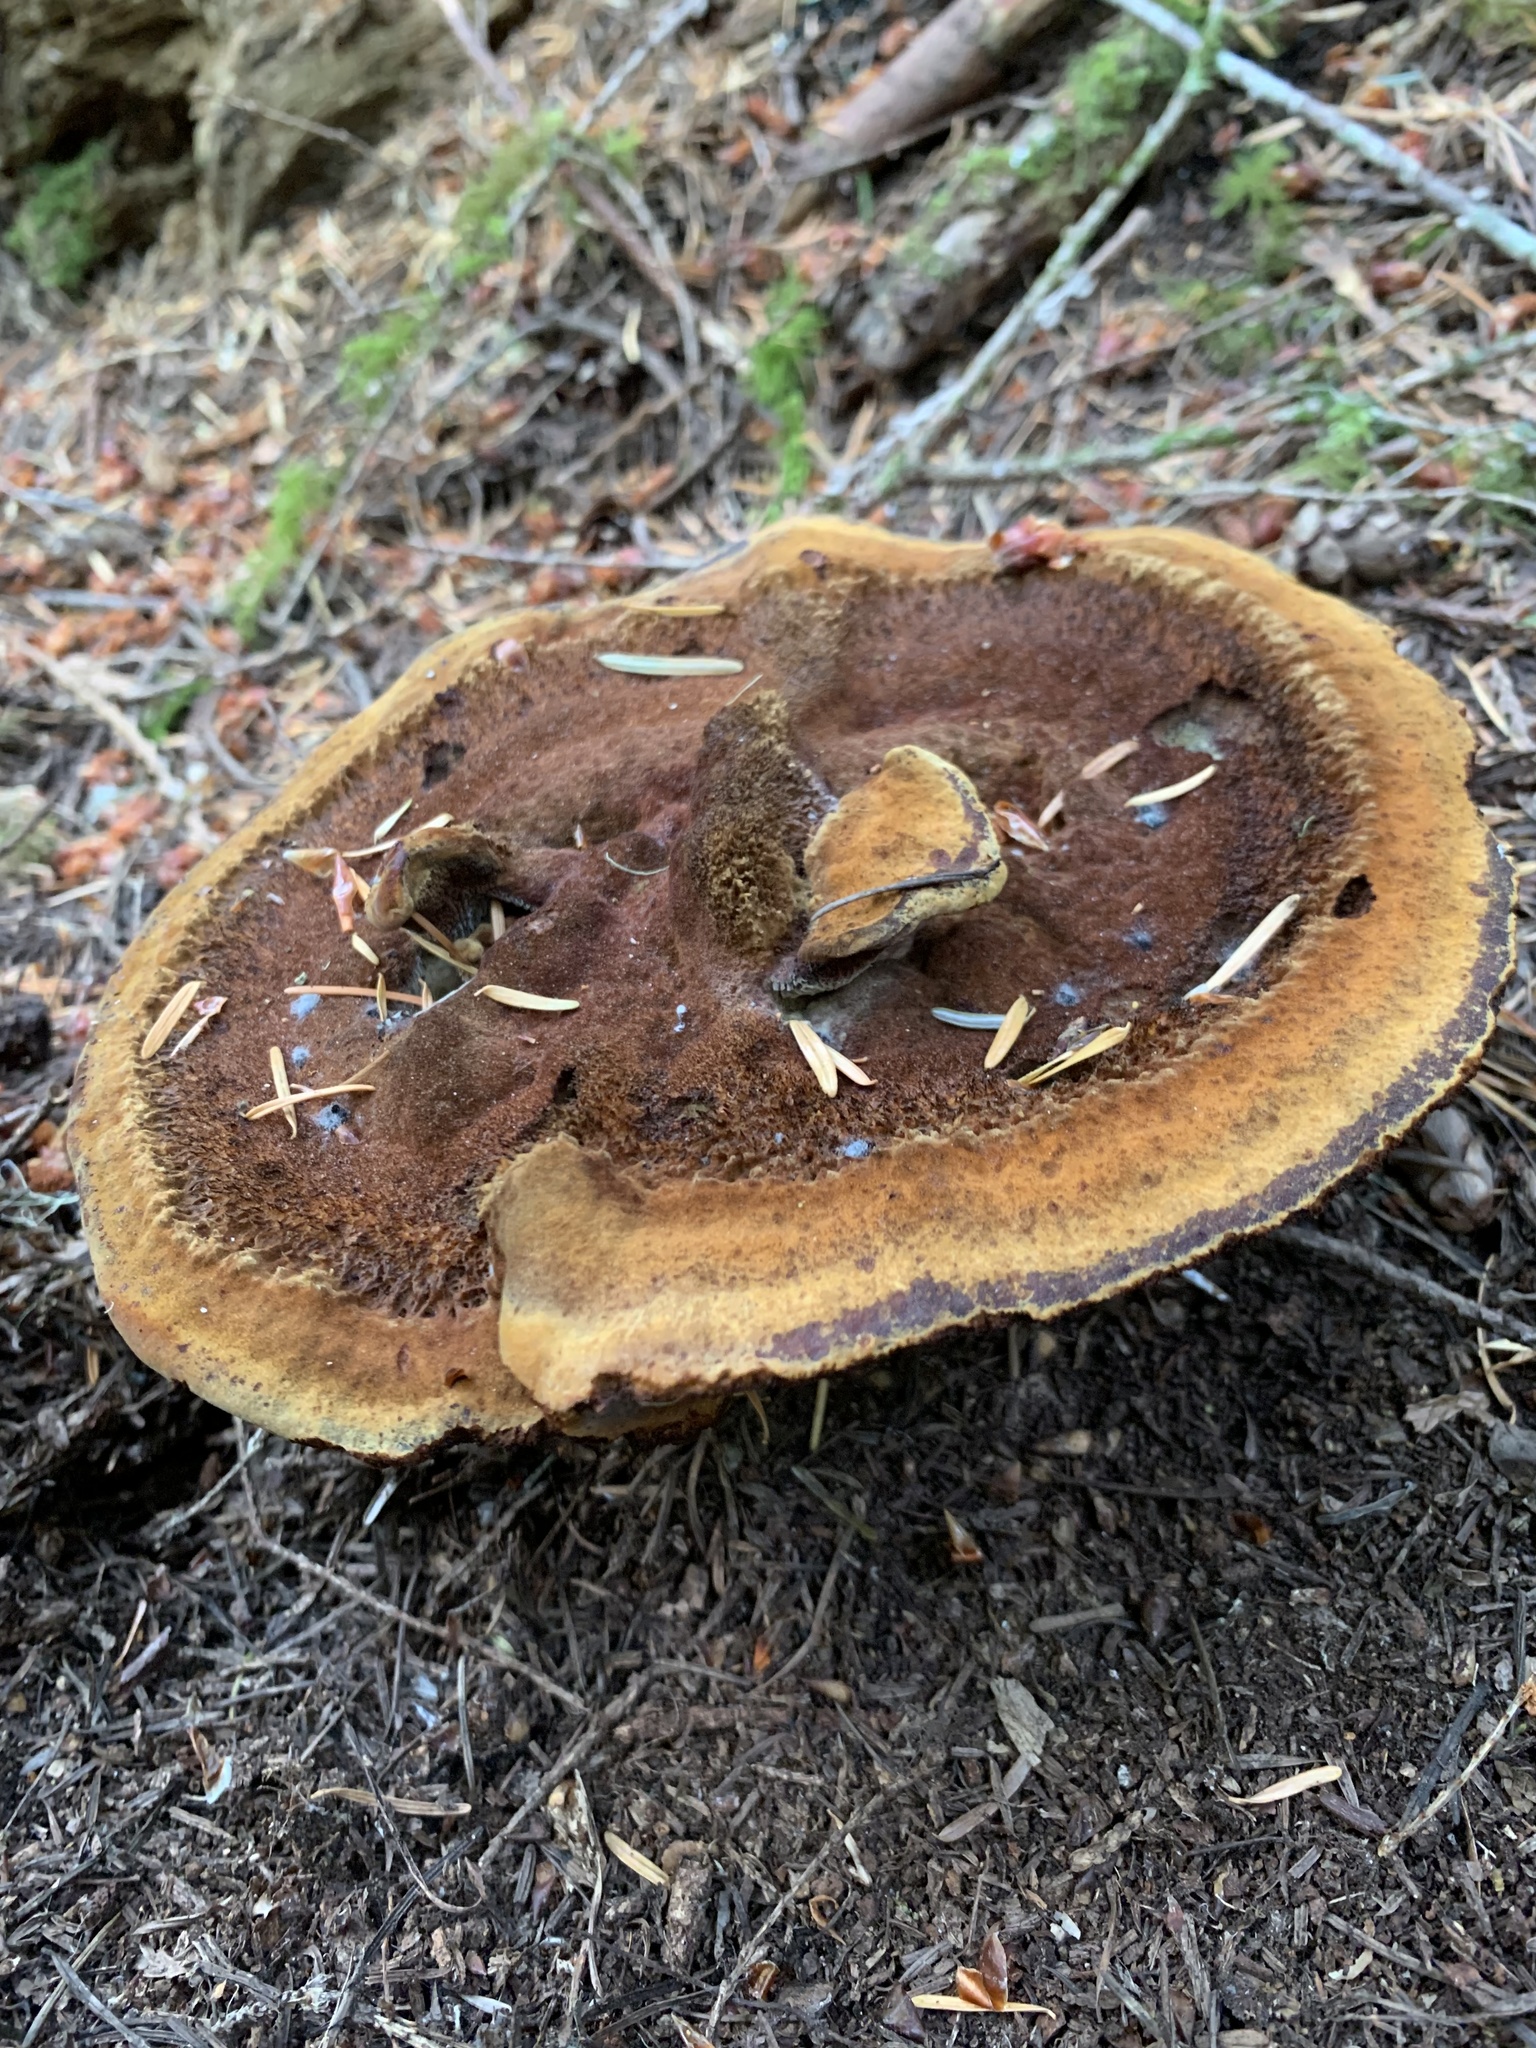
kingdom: Fungi
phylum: Basidiomycota
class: Agaricomycetes
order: Polyporales
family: Laetiporaceae
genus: Phaeolus
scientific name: Phaeolus schweinitzii
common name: Dyer's mazegill
